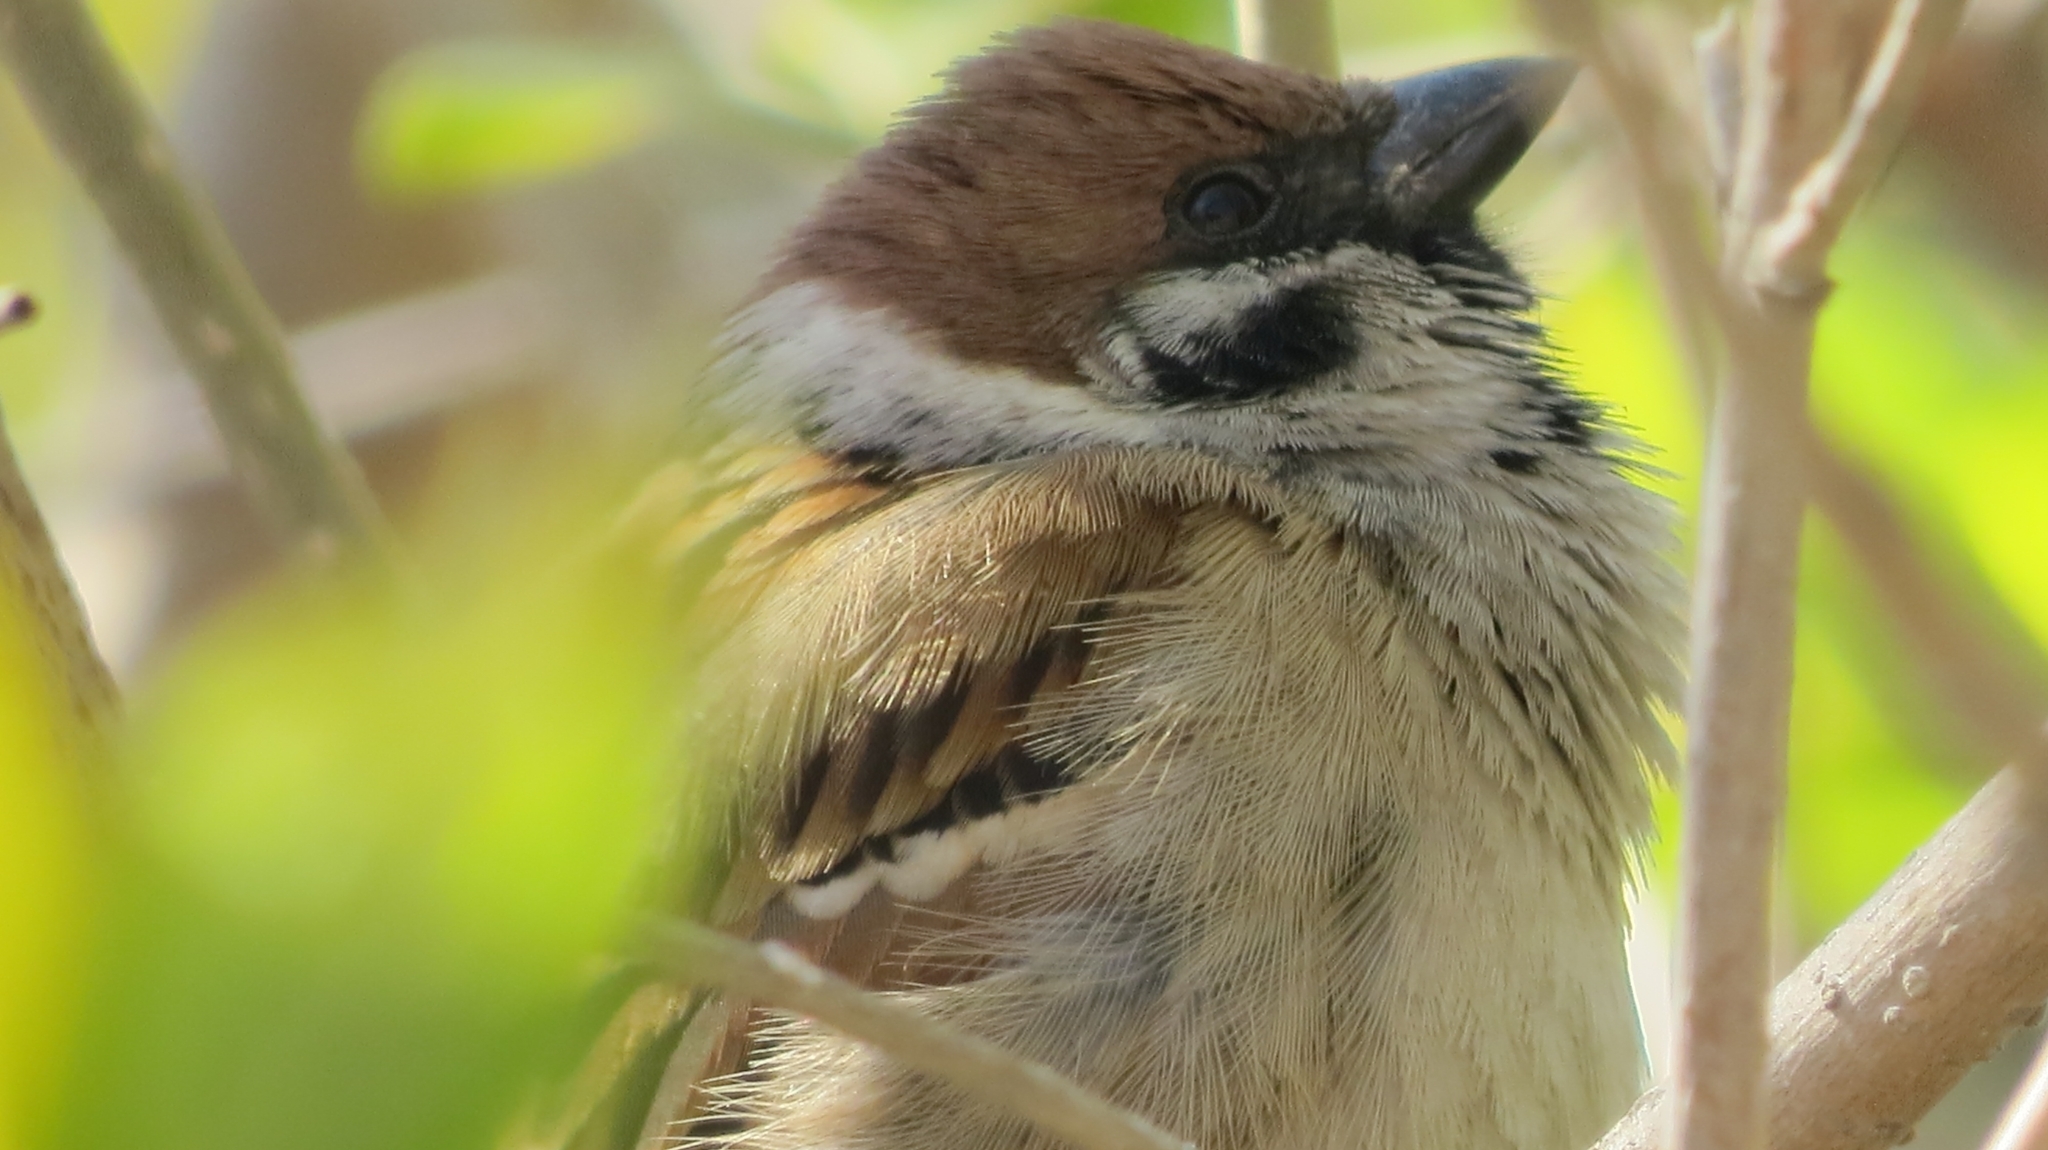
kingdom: Animalia
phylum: Chordata
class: Aves
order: Passeriformes
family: Passeridae
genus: Passer
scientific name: Passer montanus
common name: Eurasian tree sparrow
